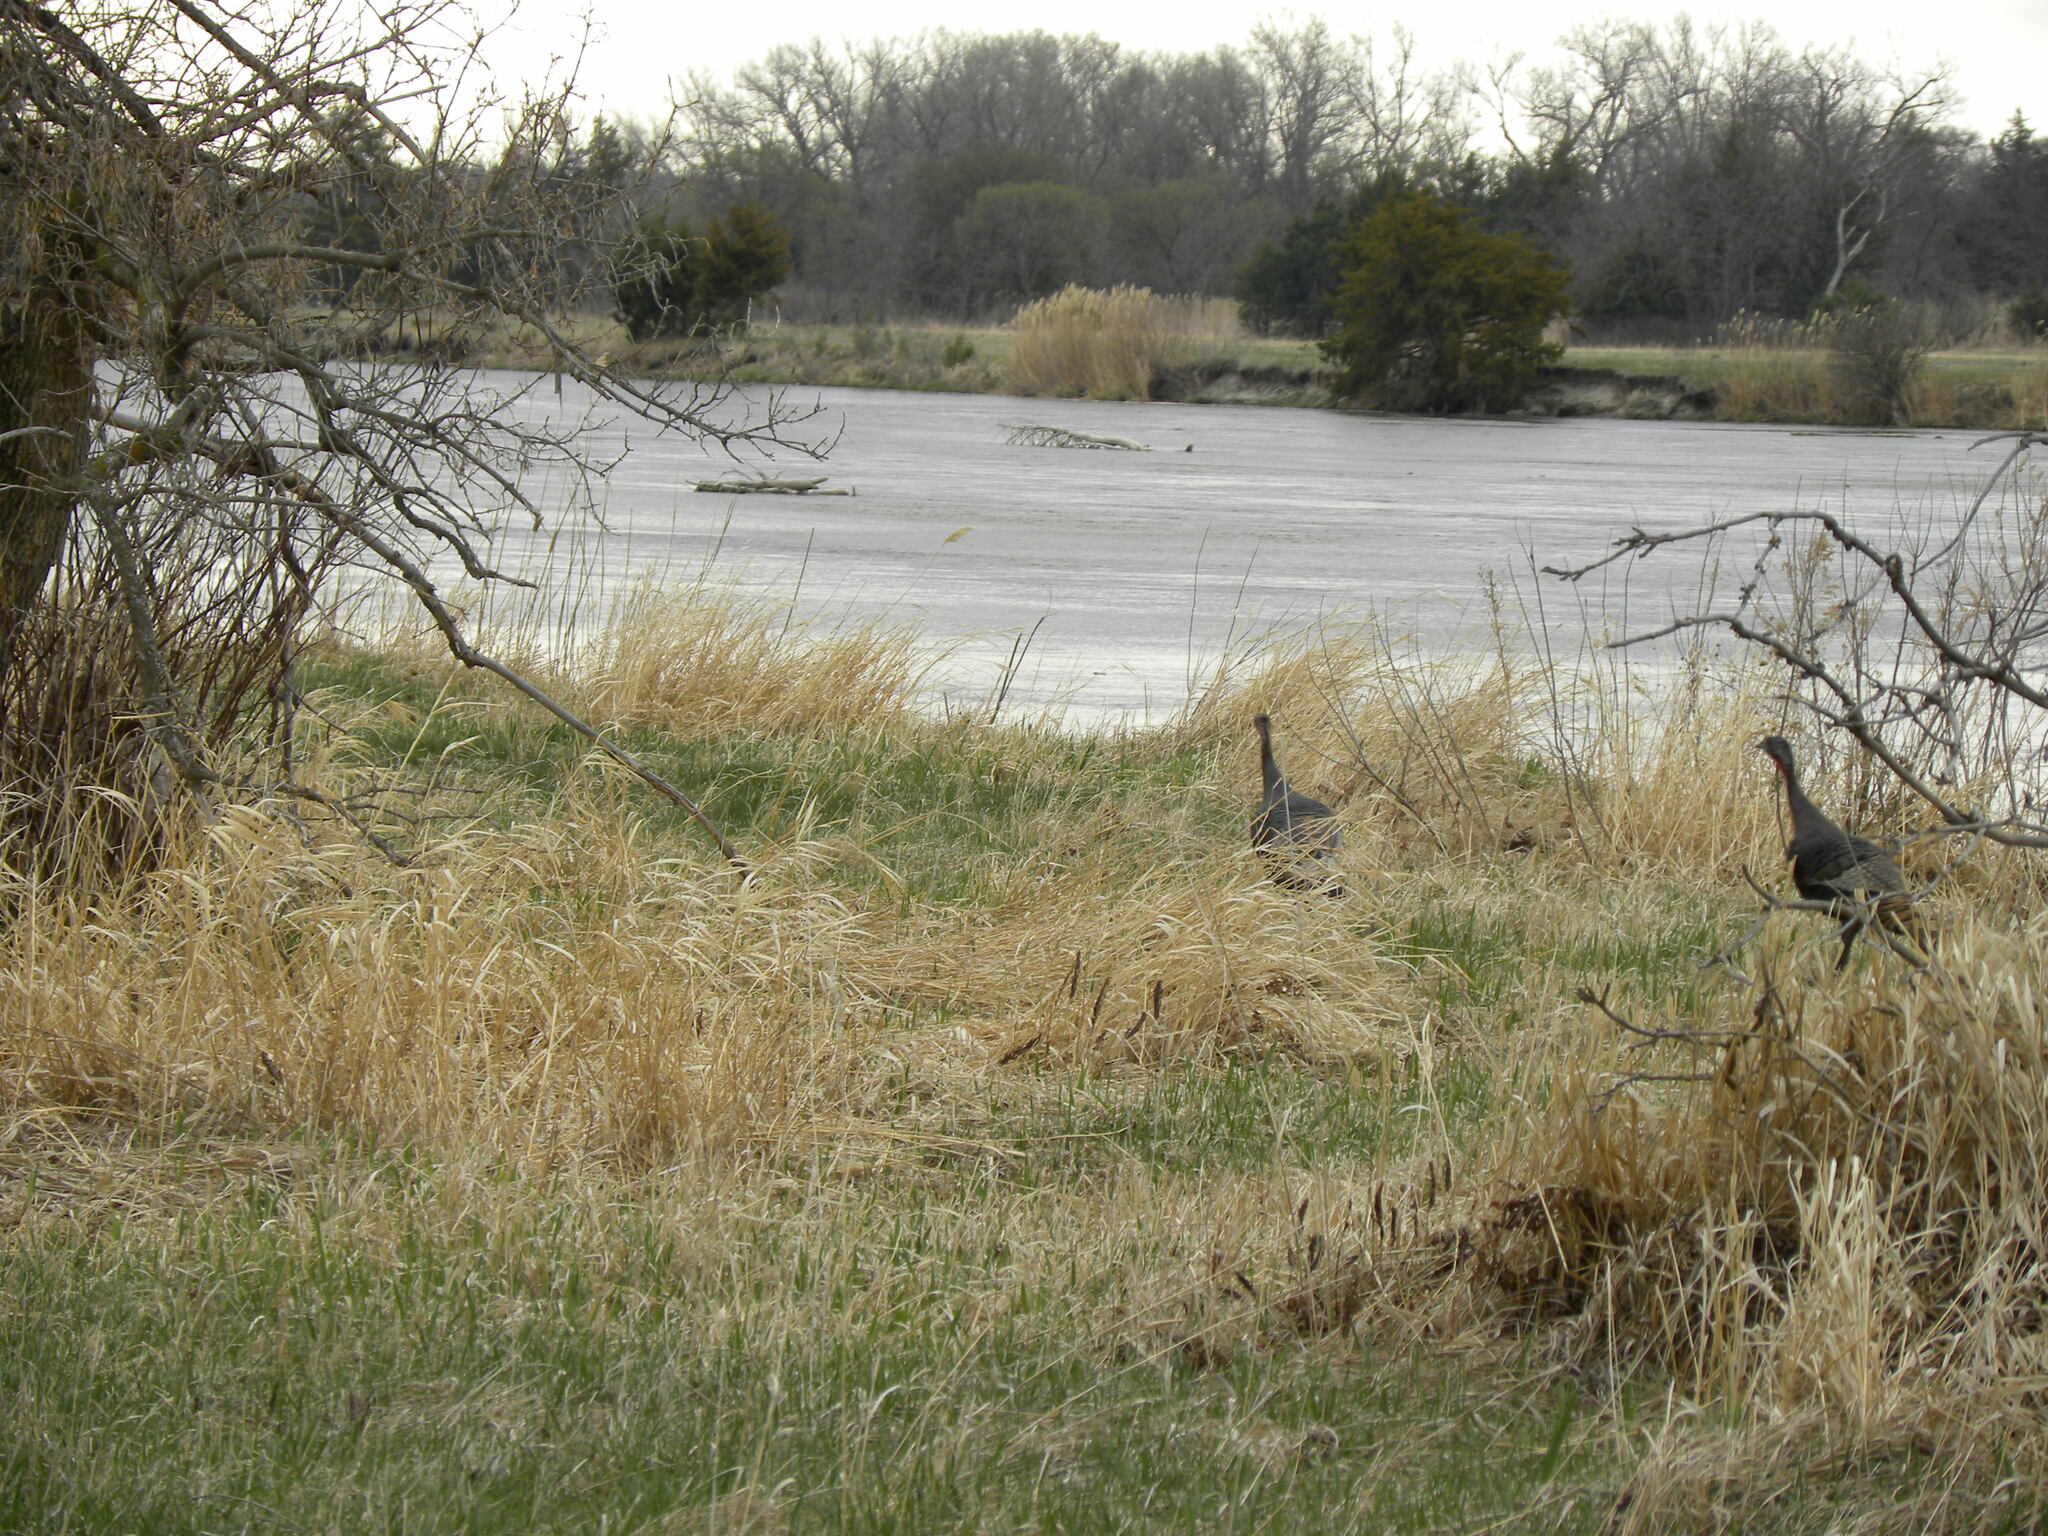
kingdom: Animalia
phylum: Chordata
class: Aves
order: Galliformes
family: Phasianidae
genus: Meleagris
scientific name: Meleagris gallopavo
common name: Wild turkey
